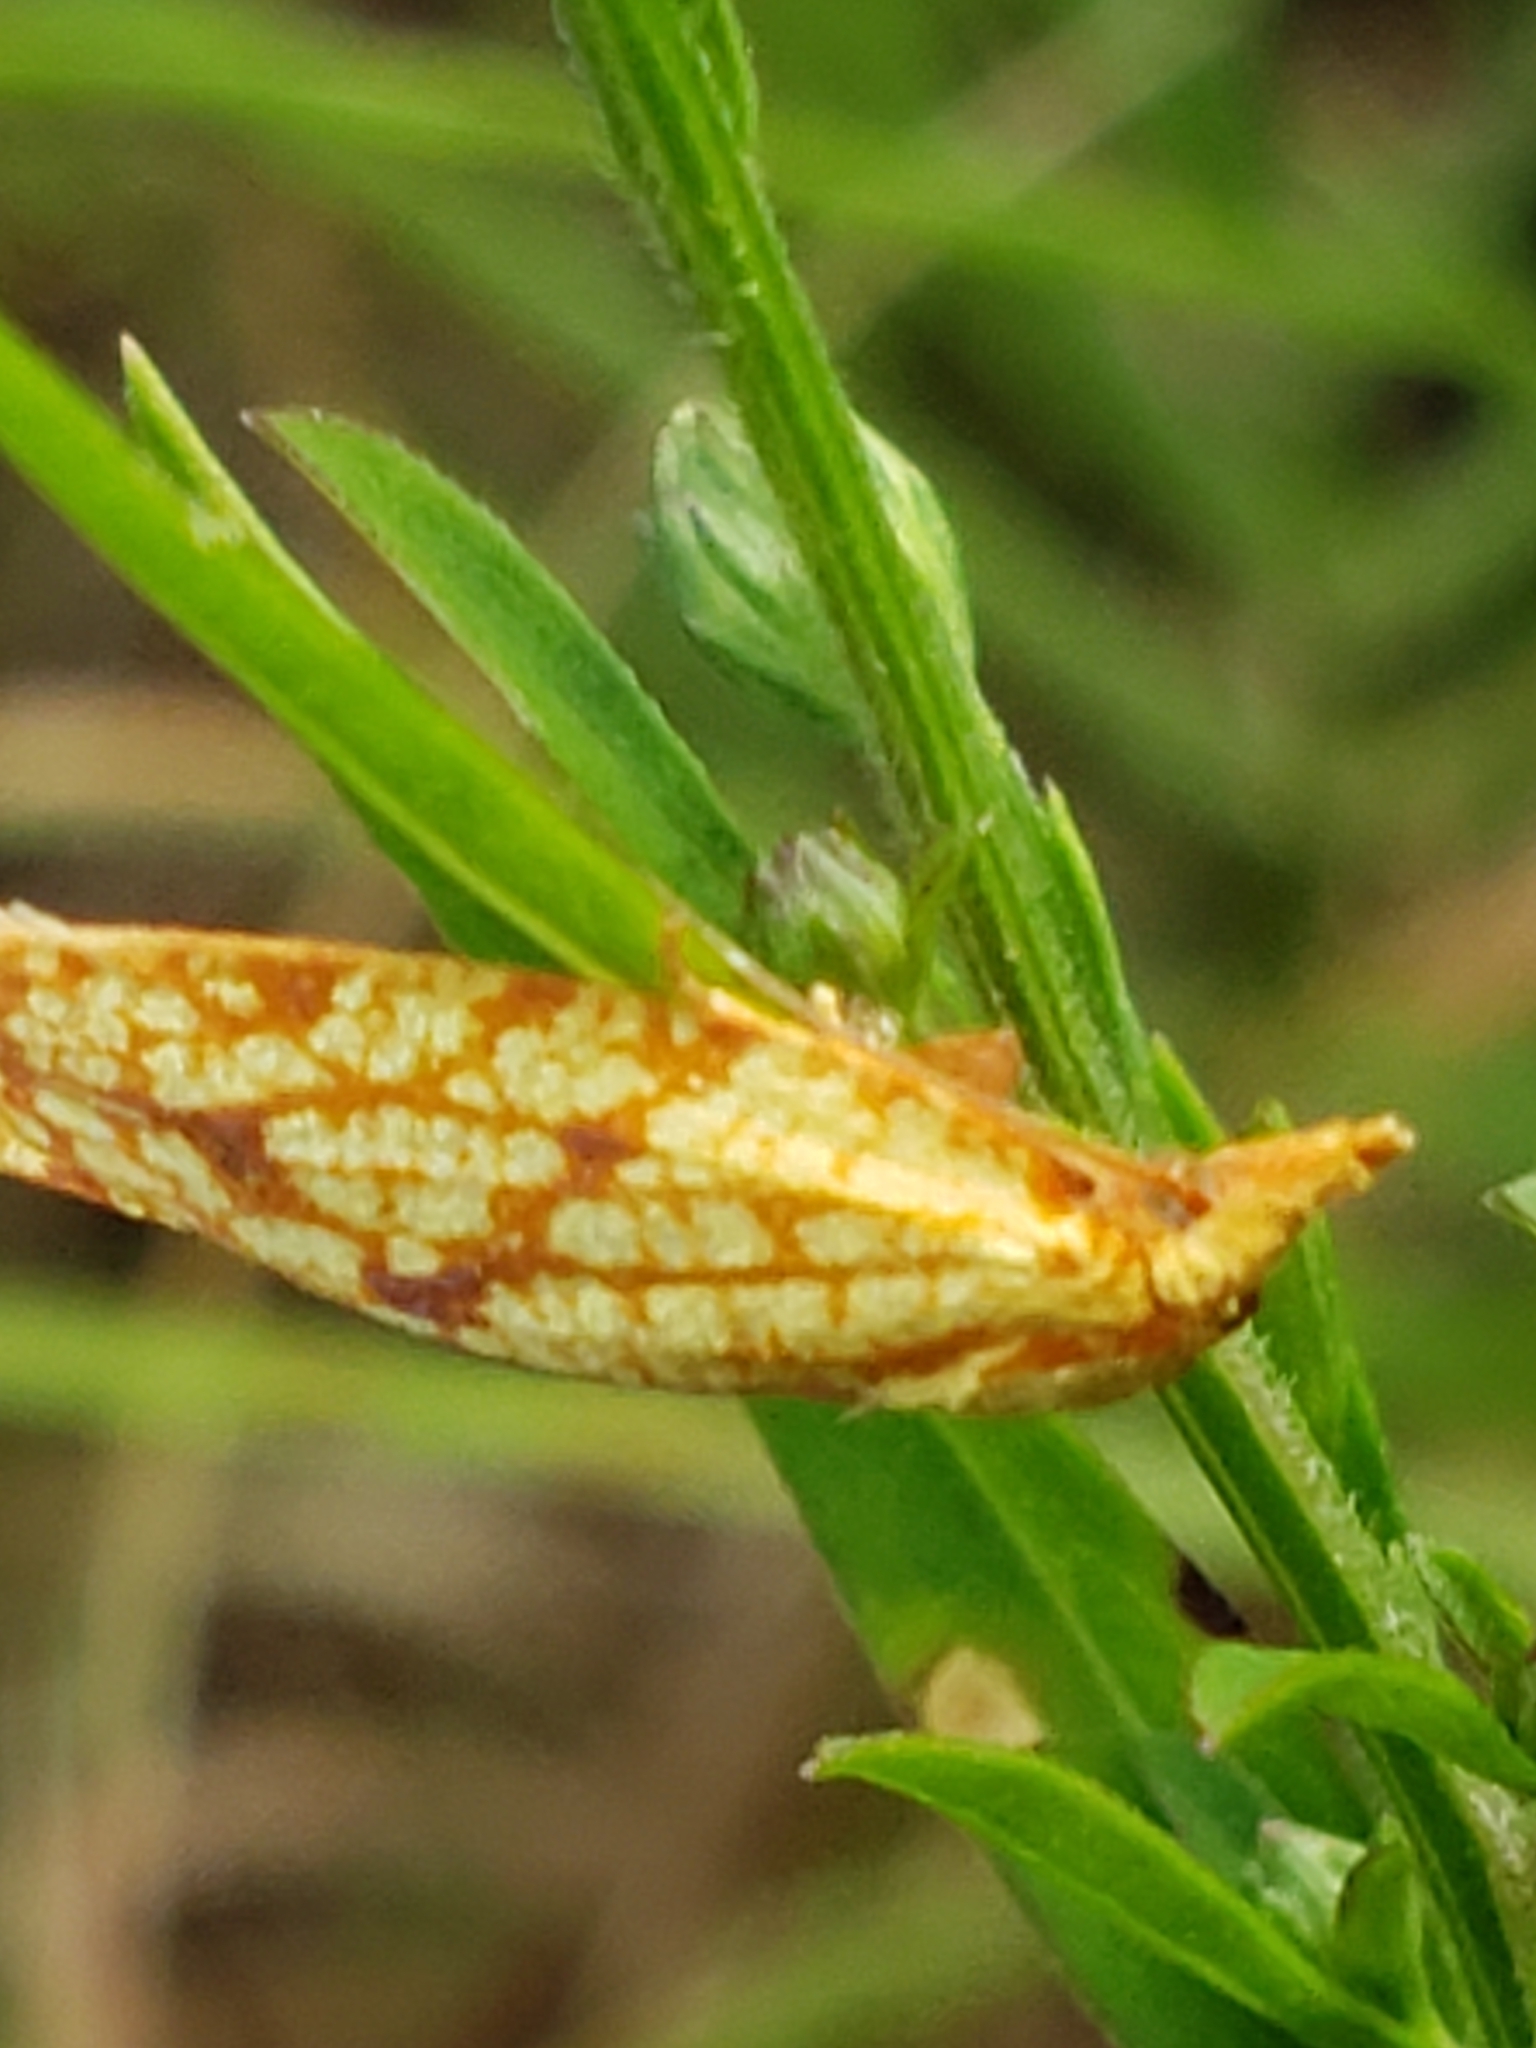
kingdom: Animalia
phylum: Arthropoda
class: Insecta
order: Lepidoptera
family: Tortricidae
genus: Sparganothis
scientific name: Sparganothis sulfureana
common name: Sparganothis fruitworm moth
